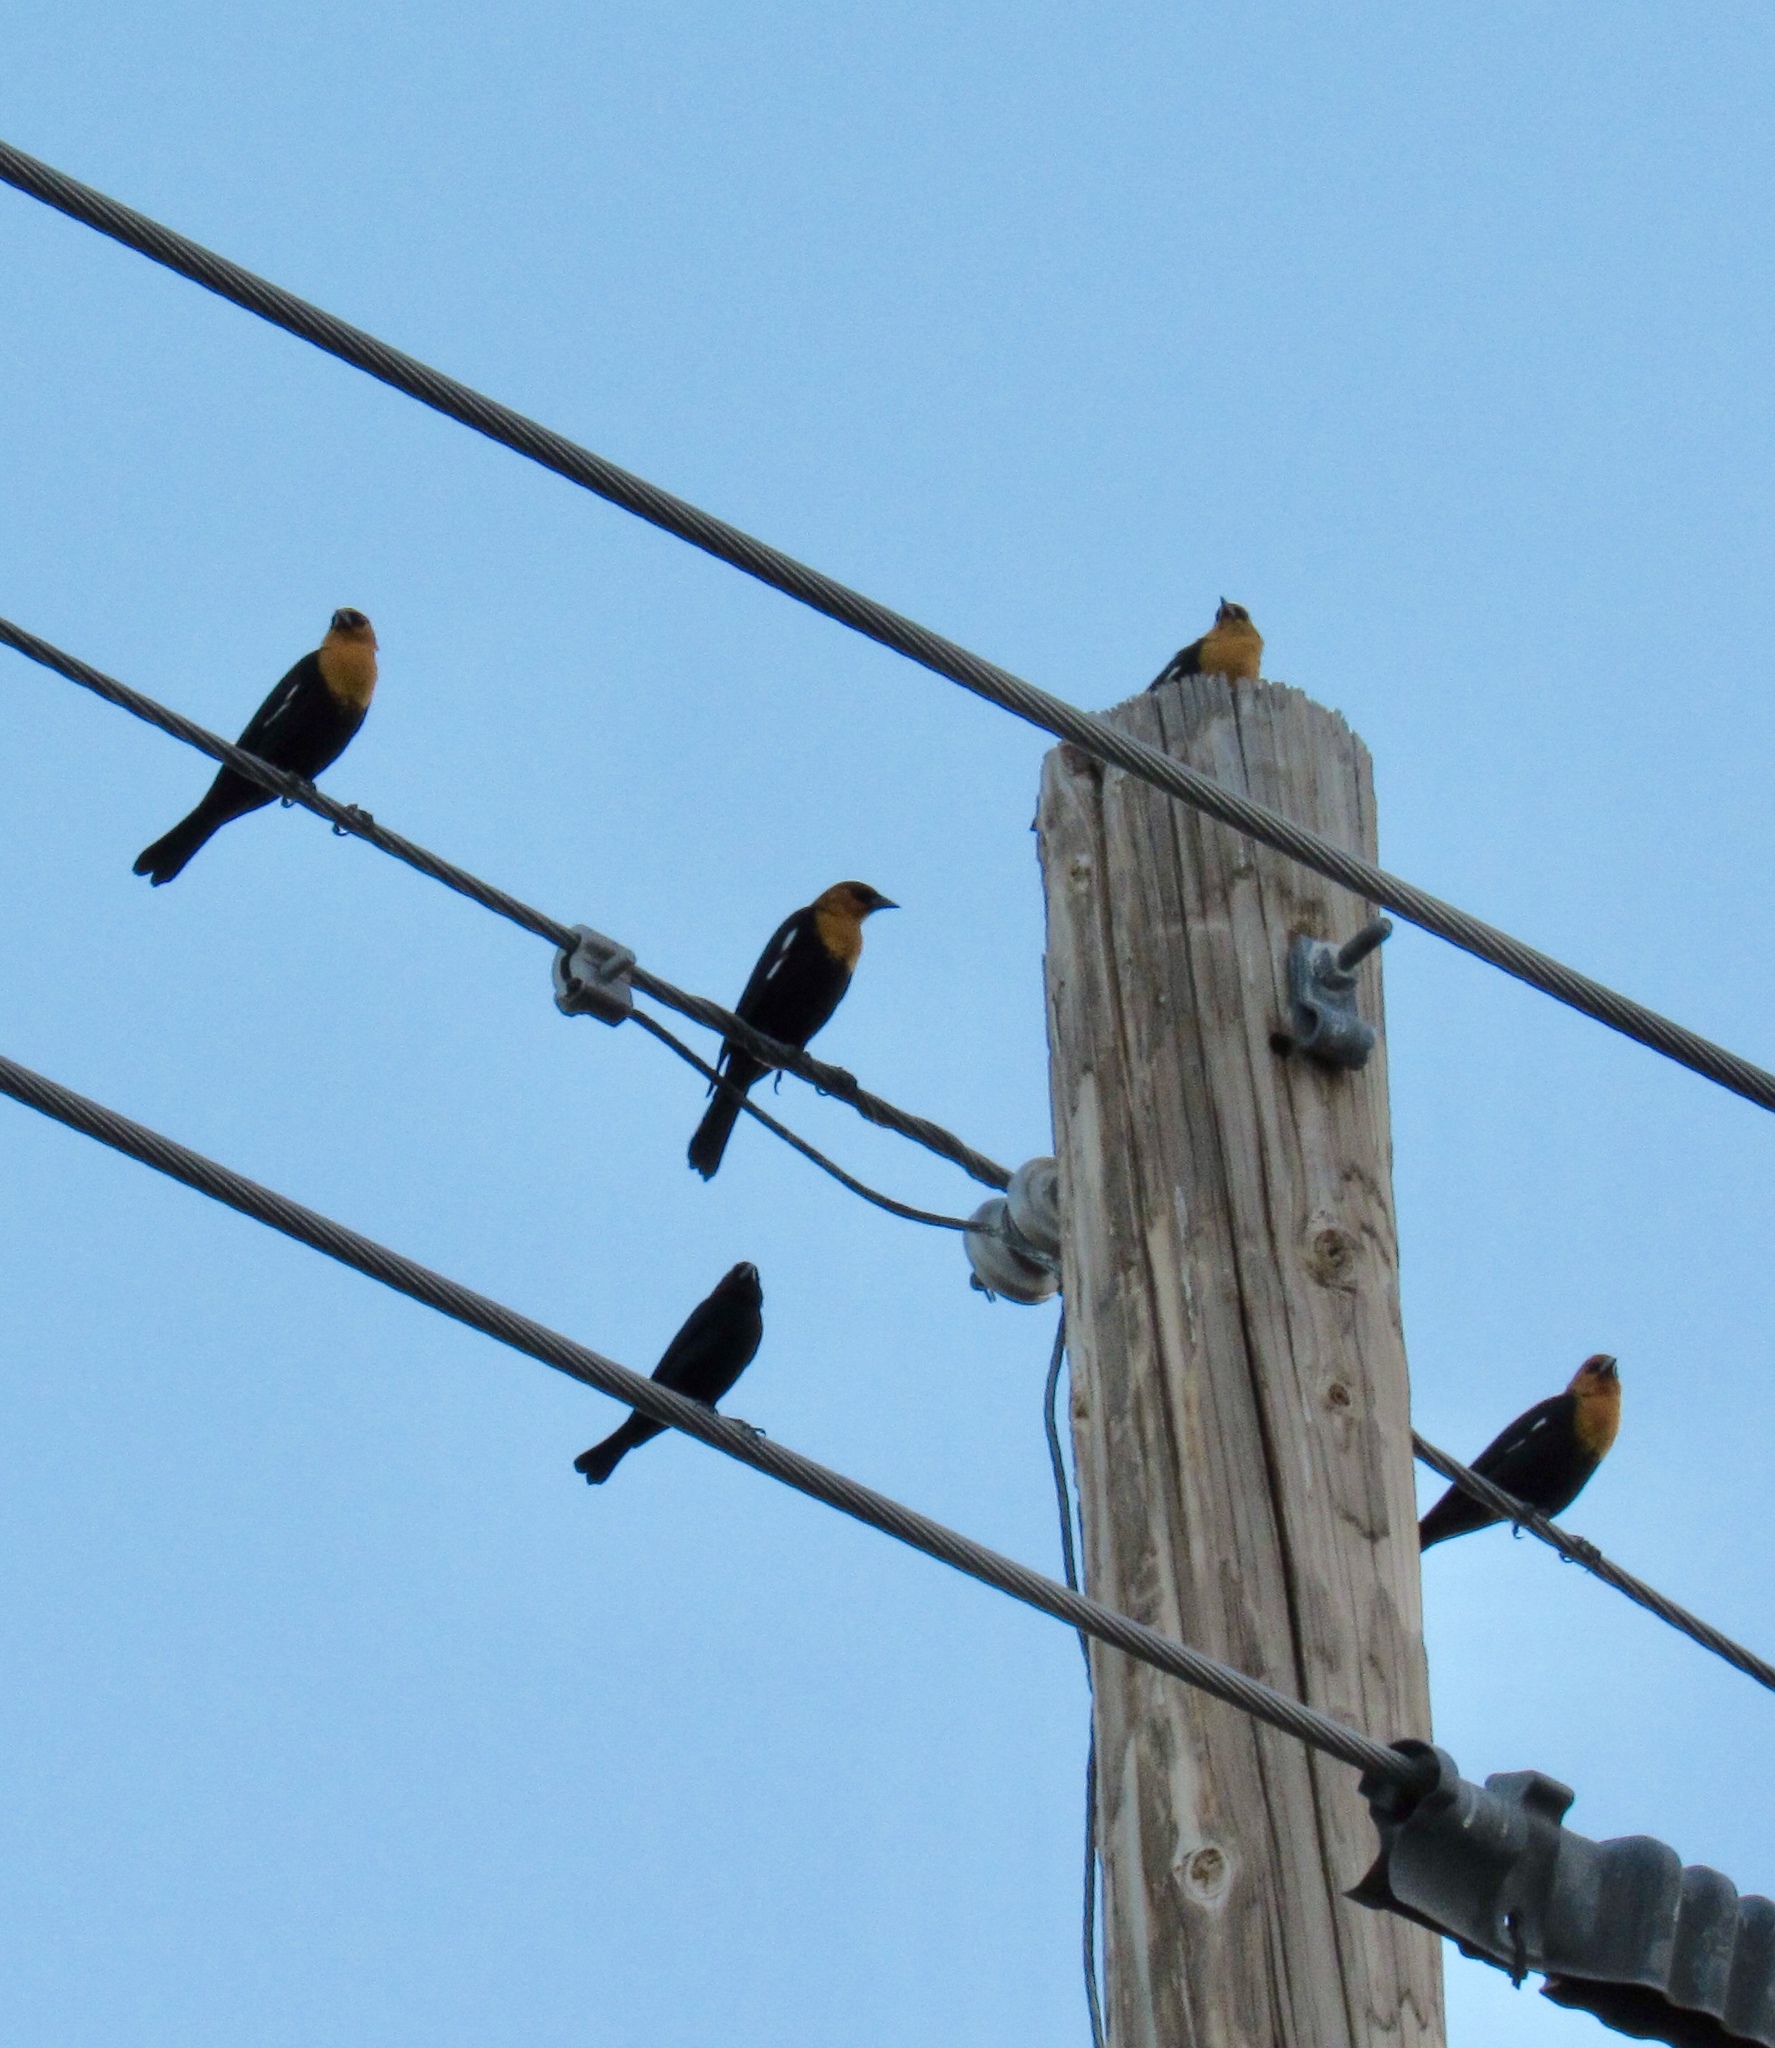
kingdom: Animalia
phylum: Chordata
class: Aves
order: Passeriformes
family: Icteridae
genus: Xanthocephalus
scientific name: Xanthocephalus xanthocephalus
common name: Yellow-headed blackbird
